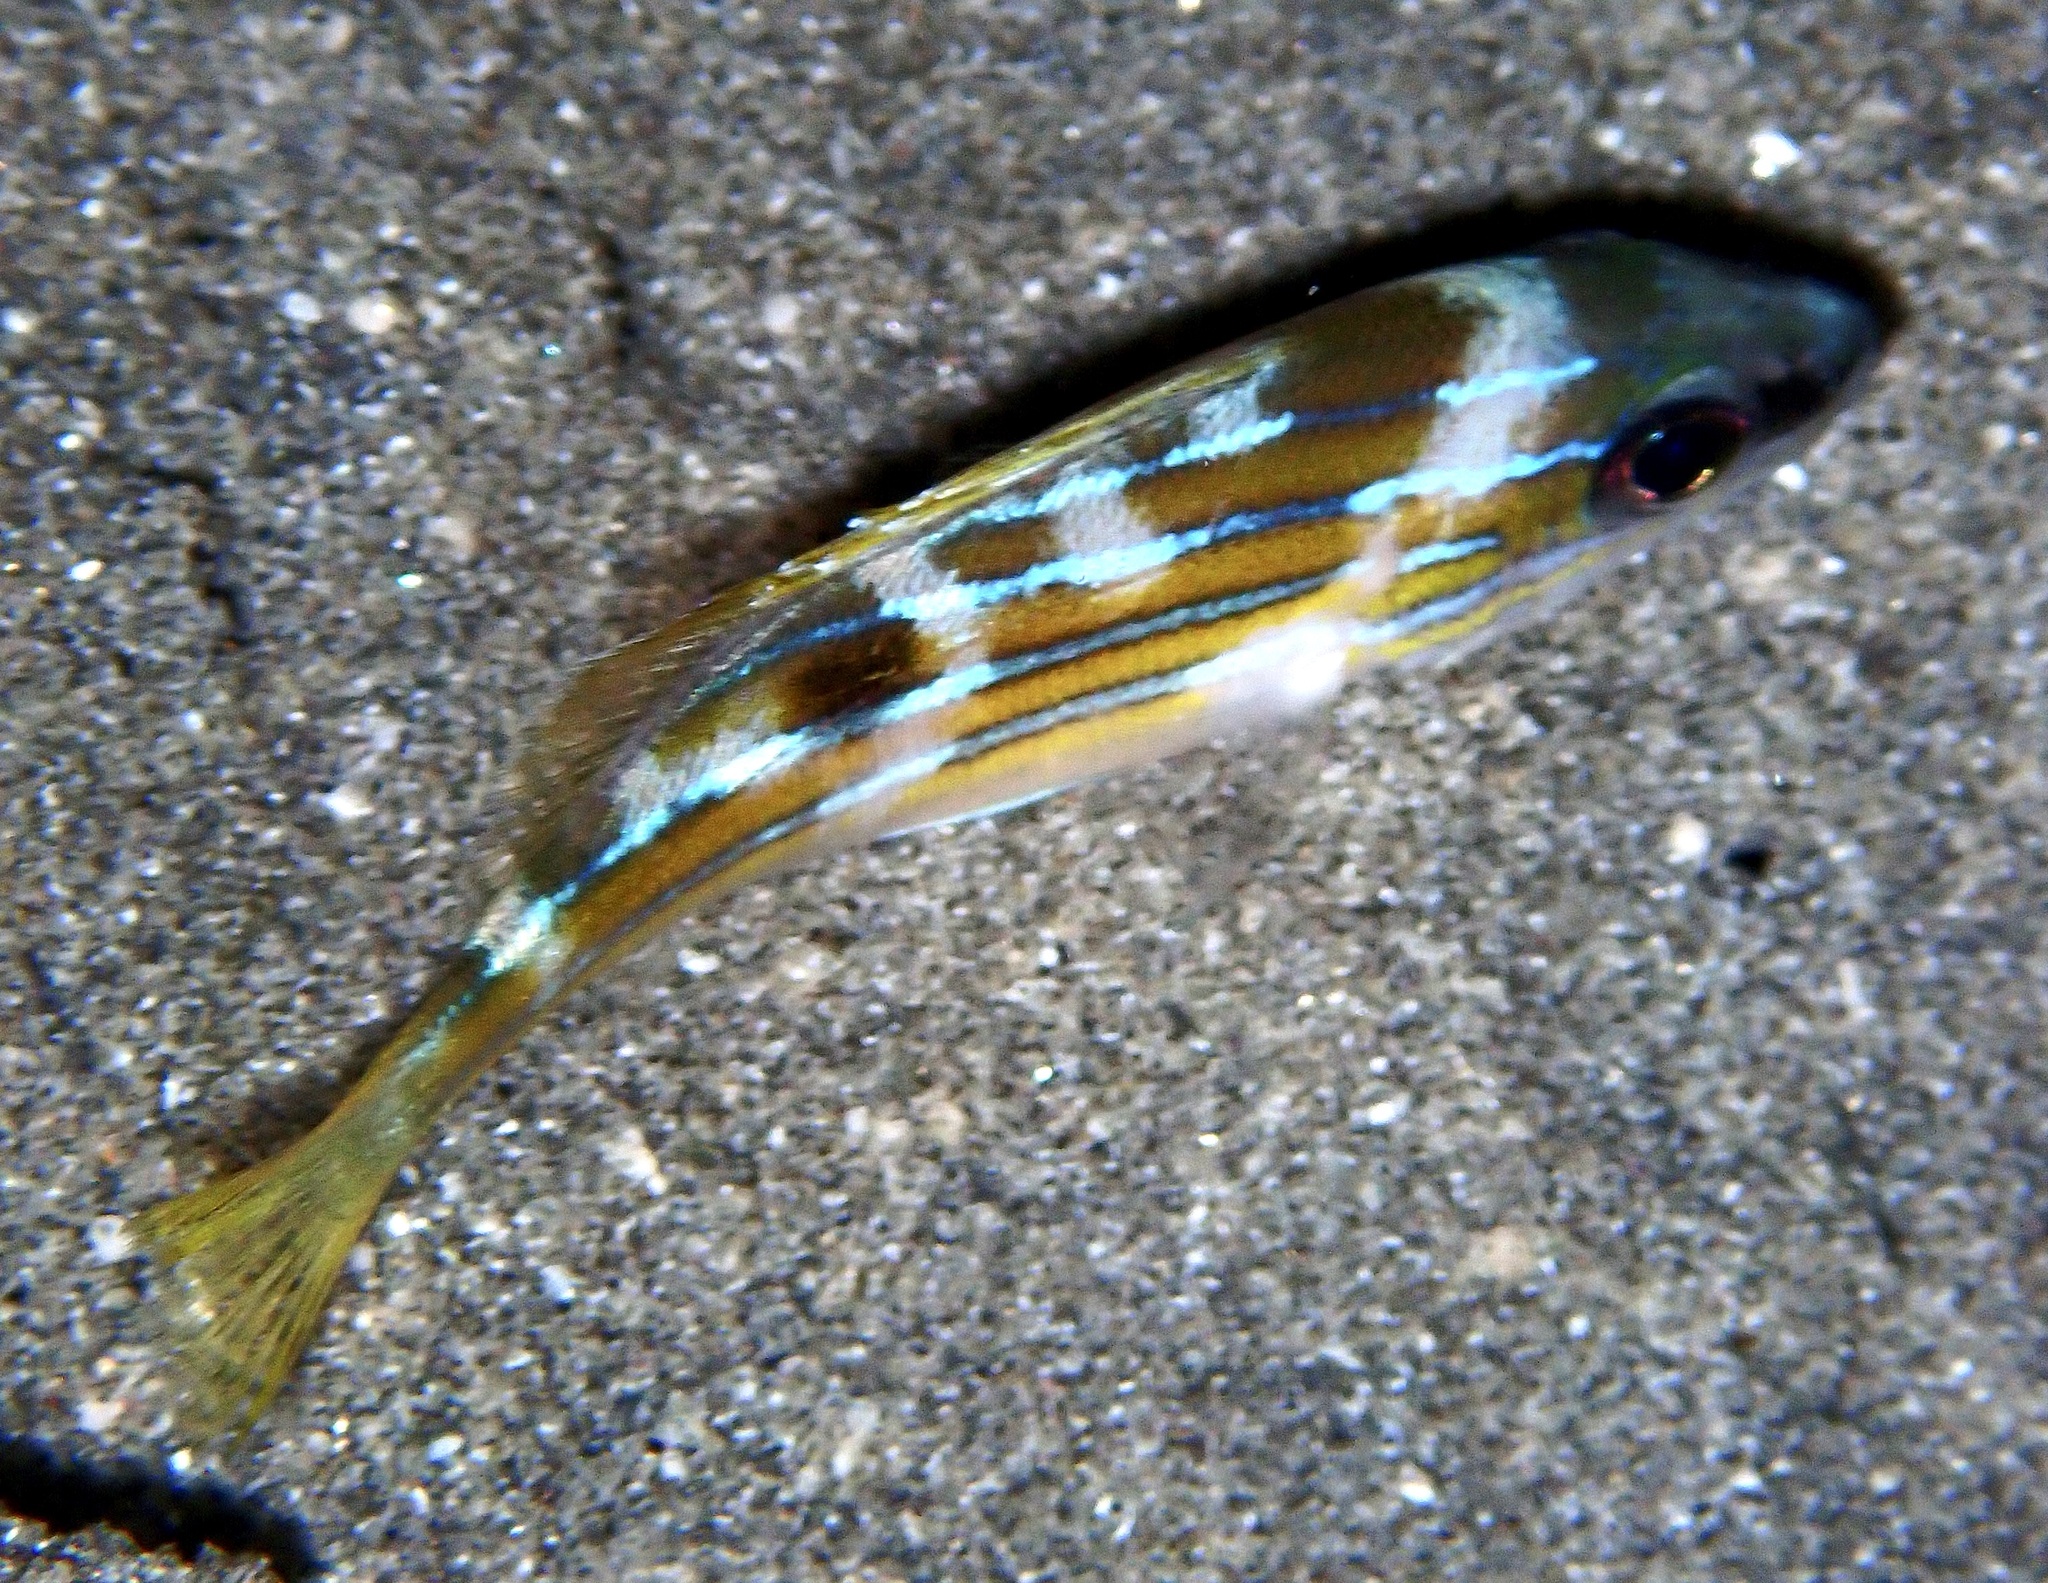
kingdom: Animalia
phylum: Chordata
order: Perciformes
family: Lutjanidae
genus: Lutjanus
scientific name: Lutjanus kasmira
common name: Common bluestripe snapper
